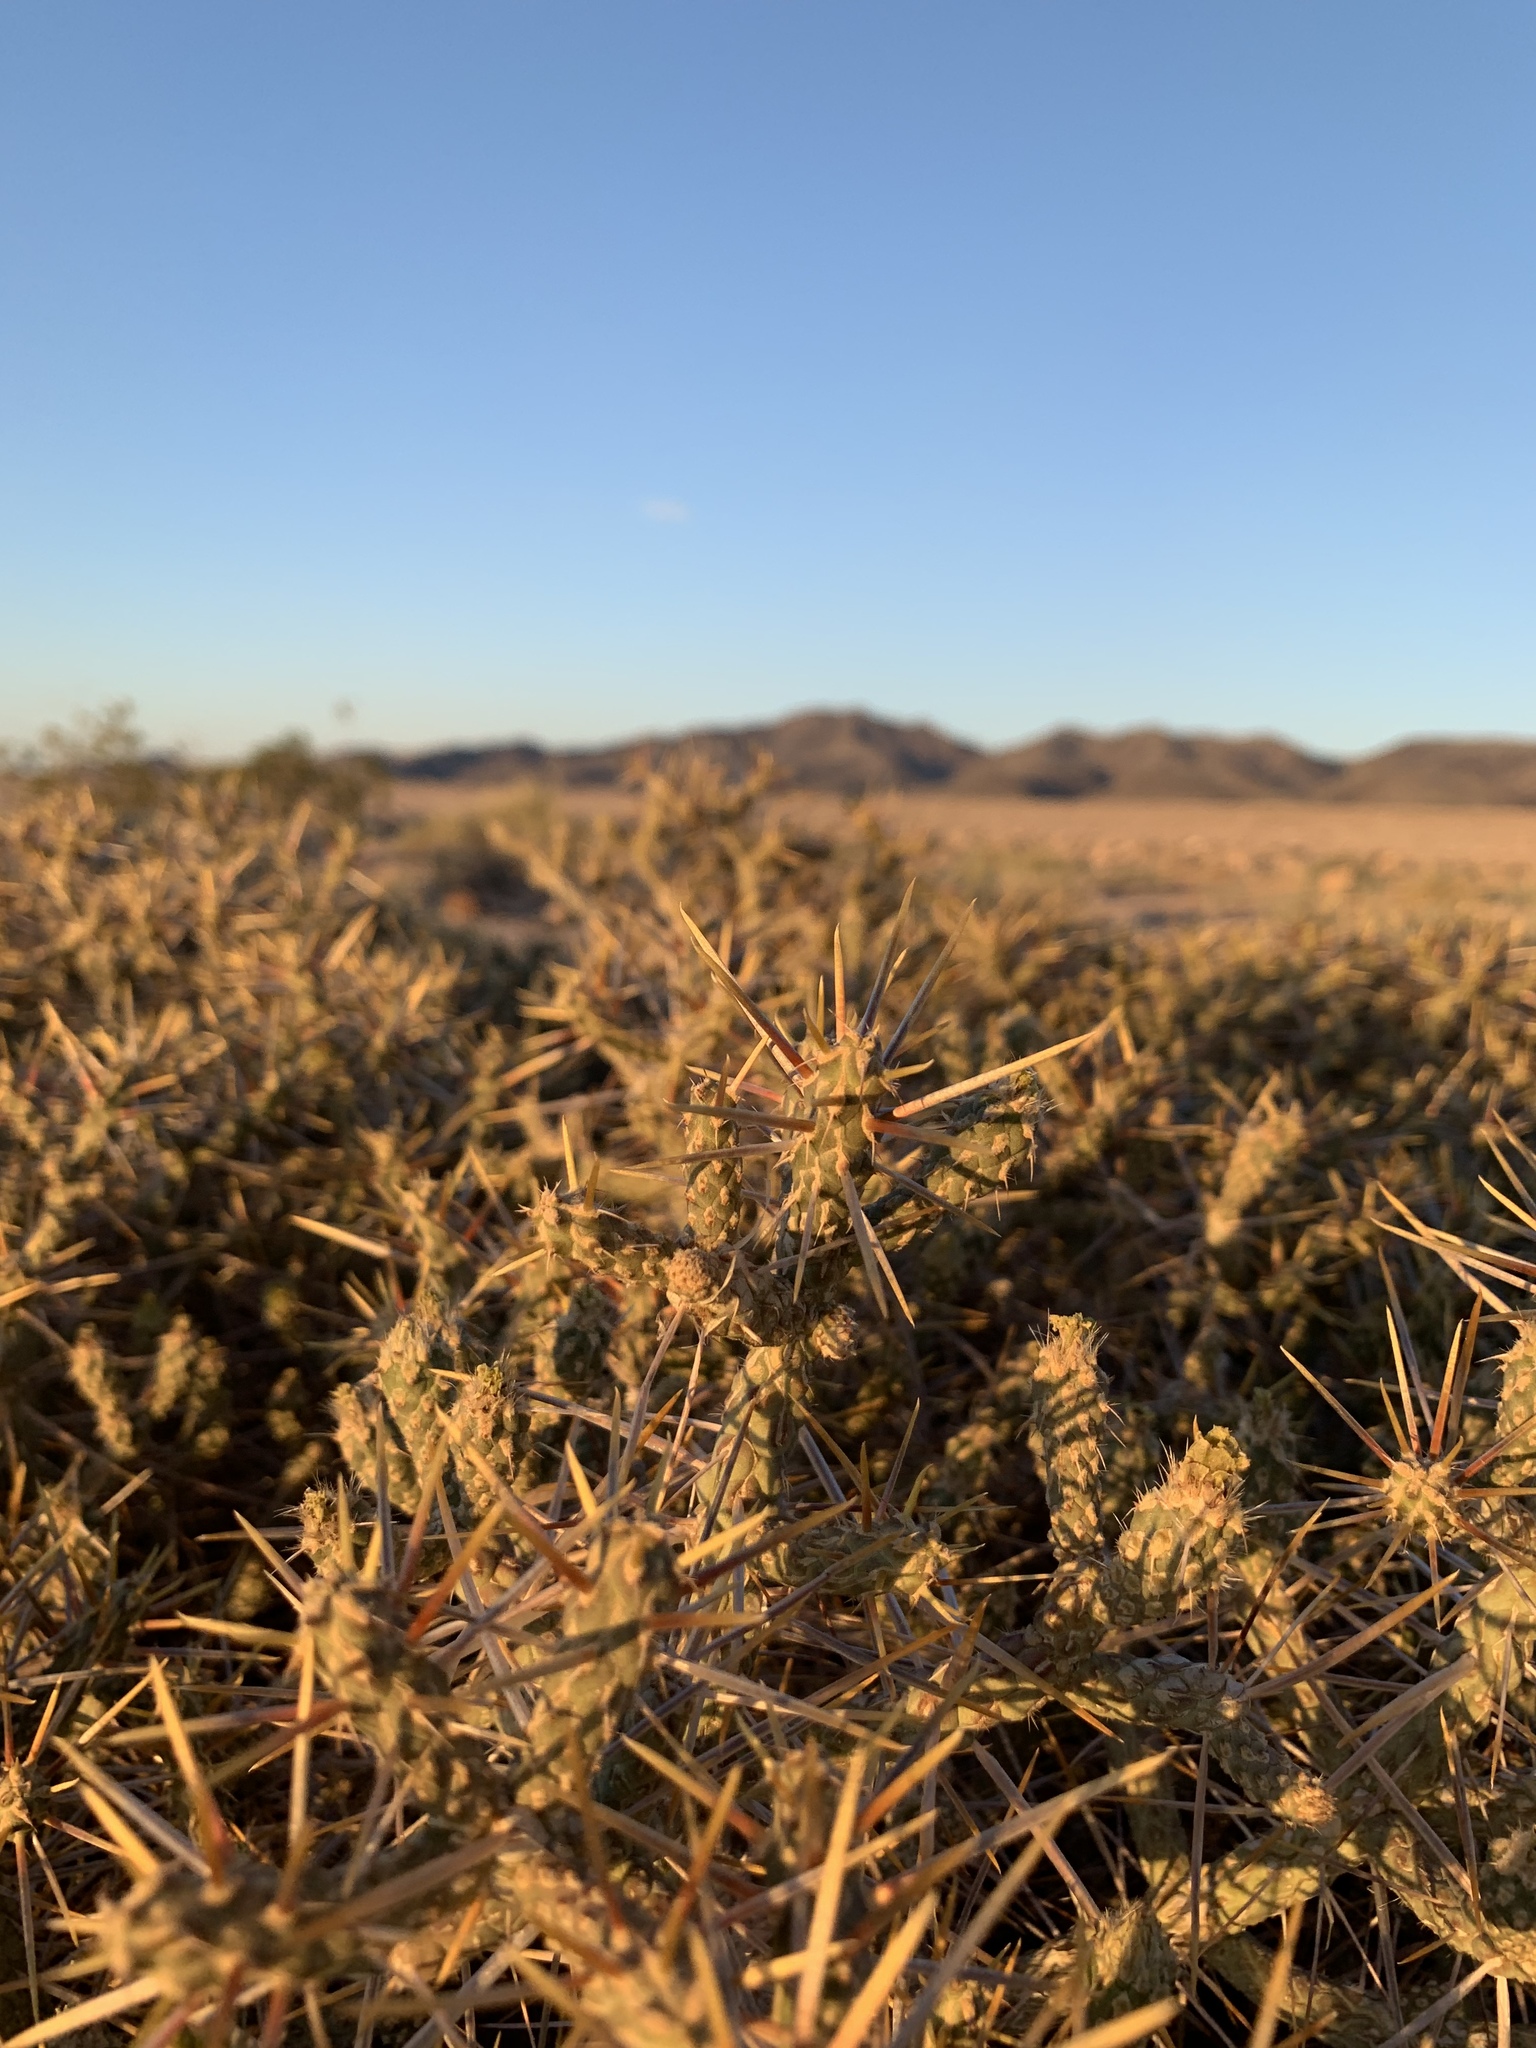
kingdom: Plantae
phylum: Tracheophyta
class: Magnoliopsida
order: Caryophyllales
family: Cactaceae
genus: Cylindropuntia
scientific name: Cylindropuntia ramosissima
